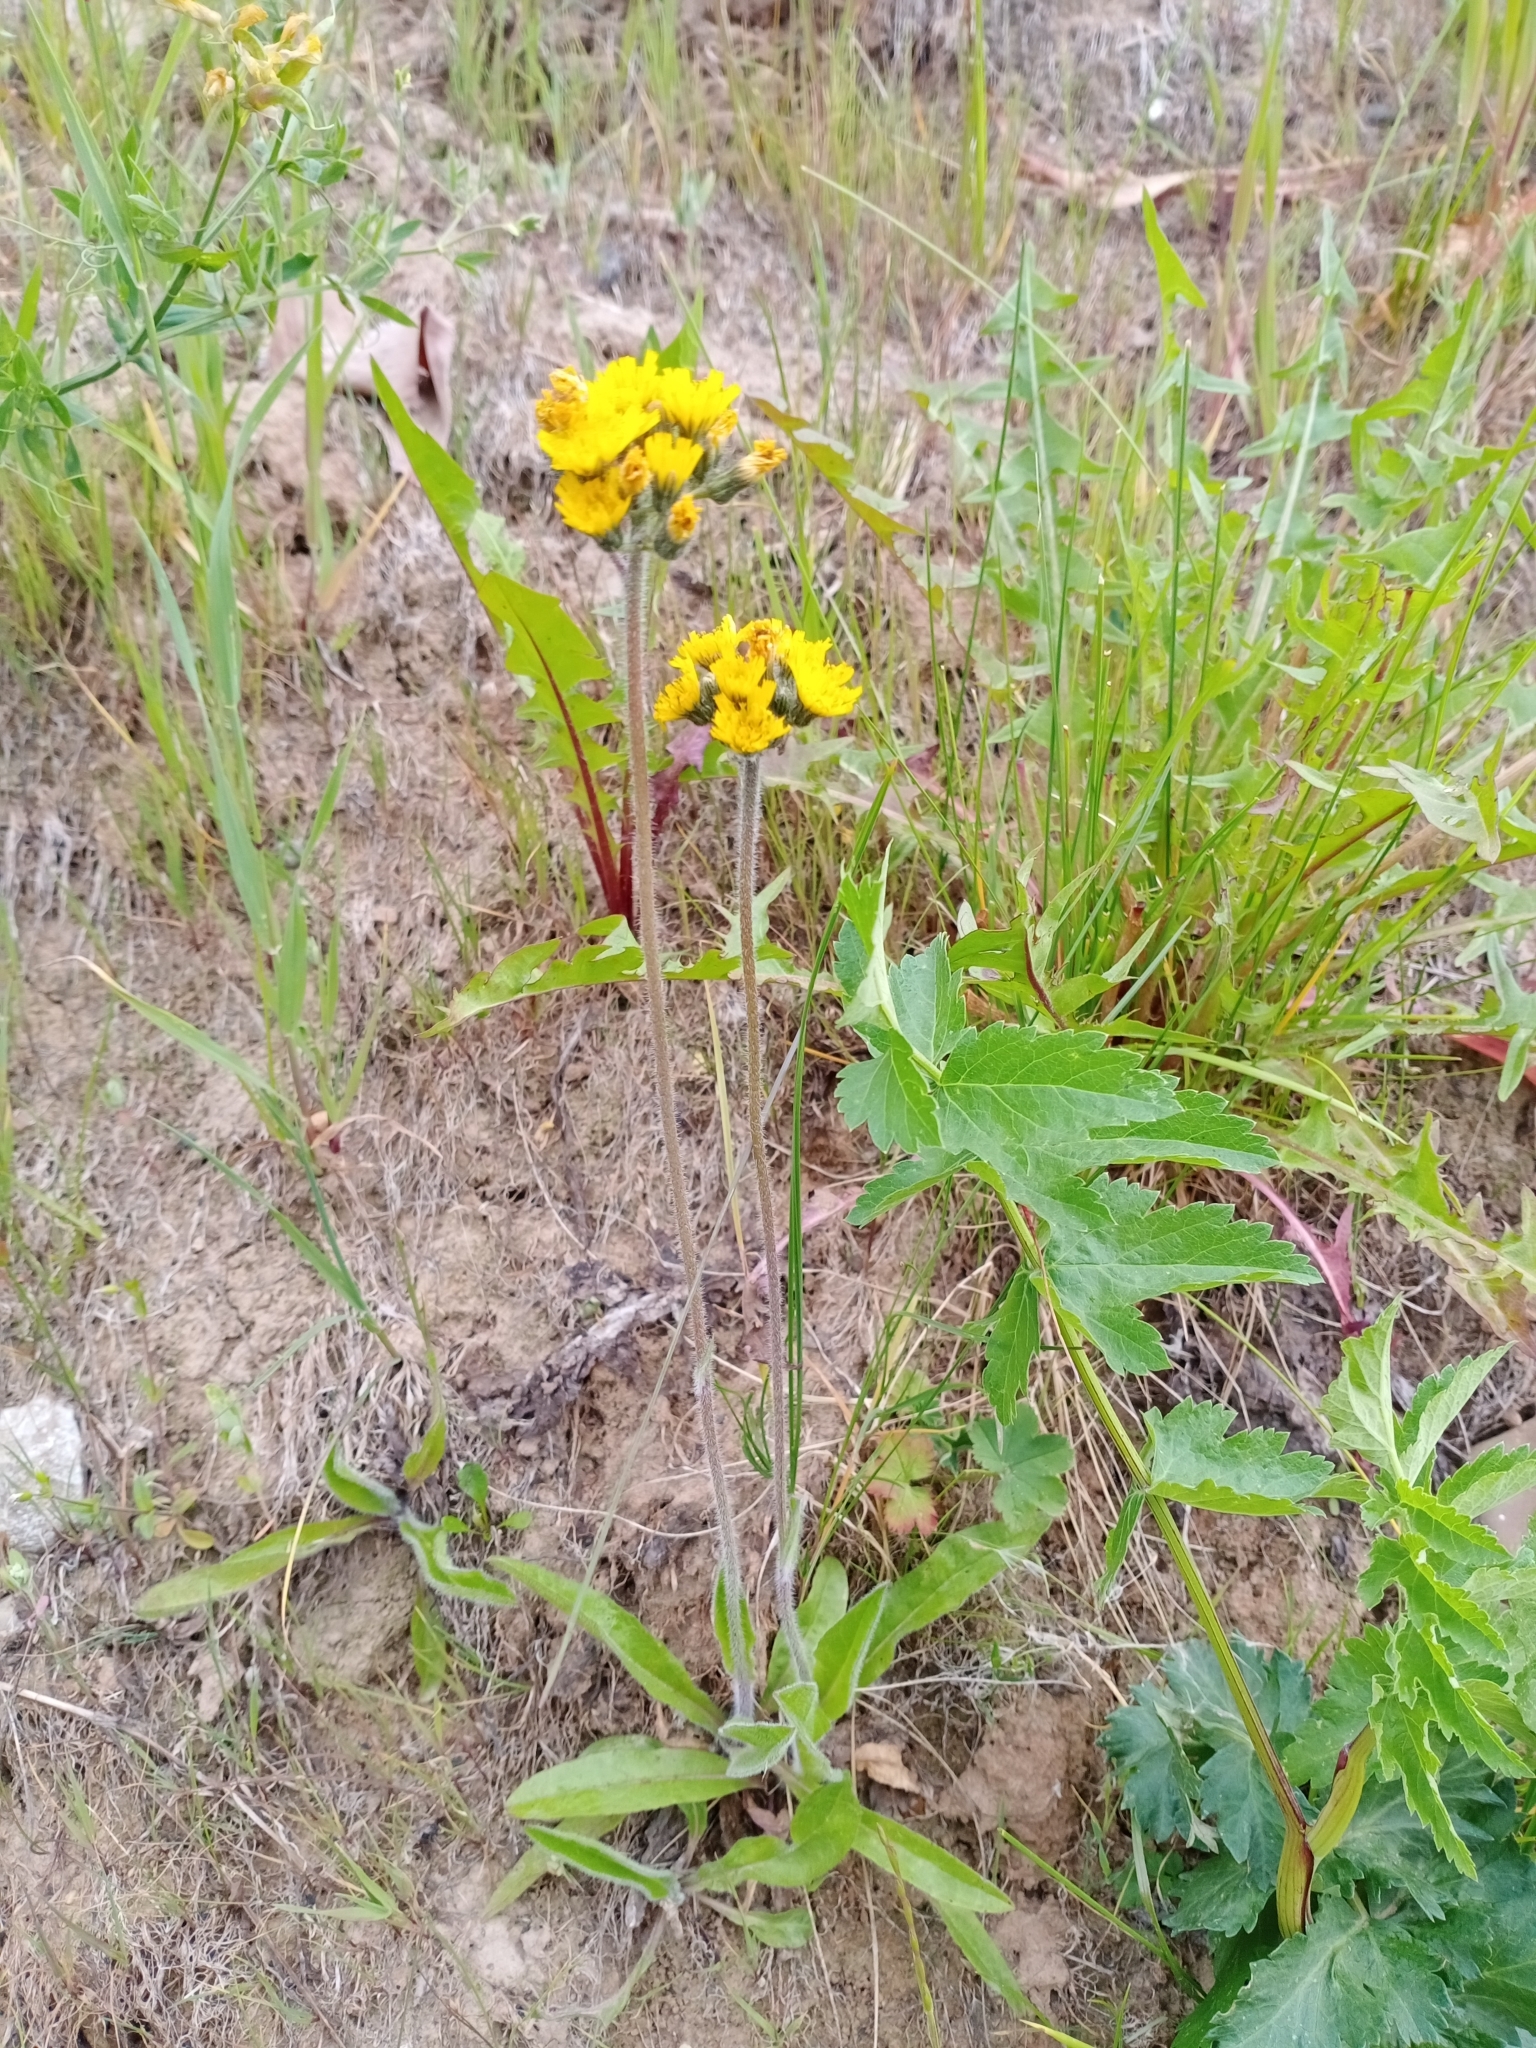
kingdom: Plantae
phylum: Tracheophyta
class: Magnoliopsida
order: Asterales
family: Asteraceae
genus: Pilosella
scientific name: Pilosella onegensis
